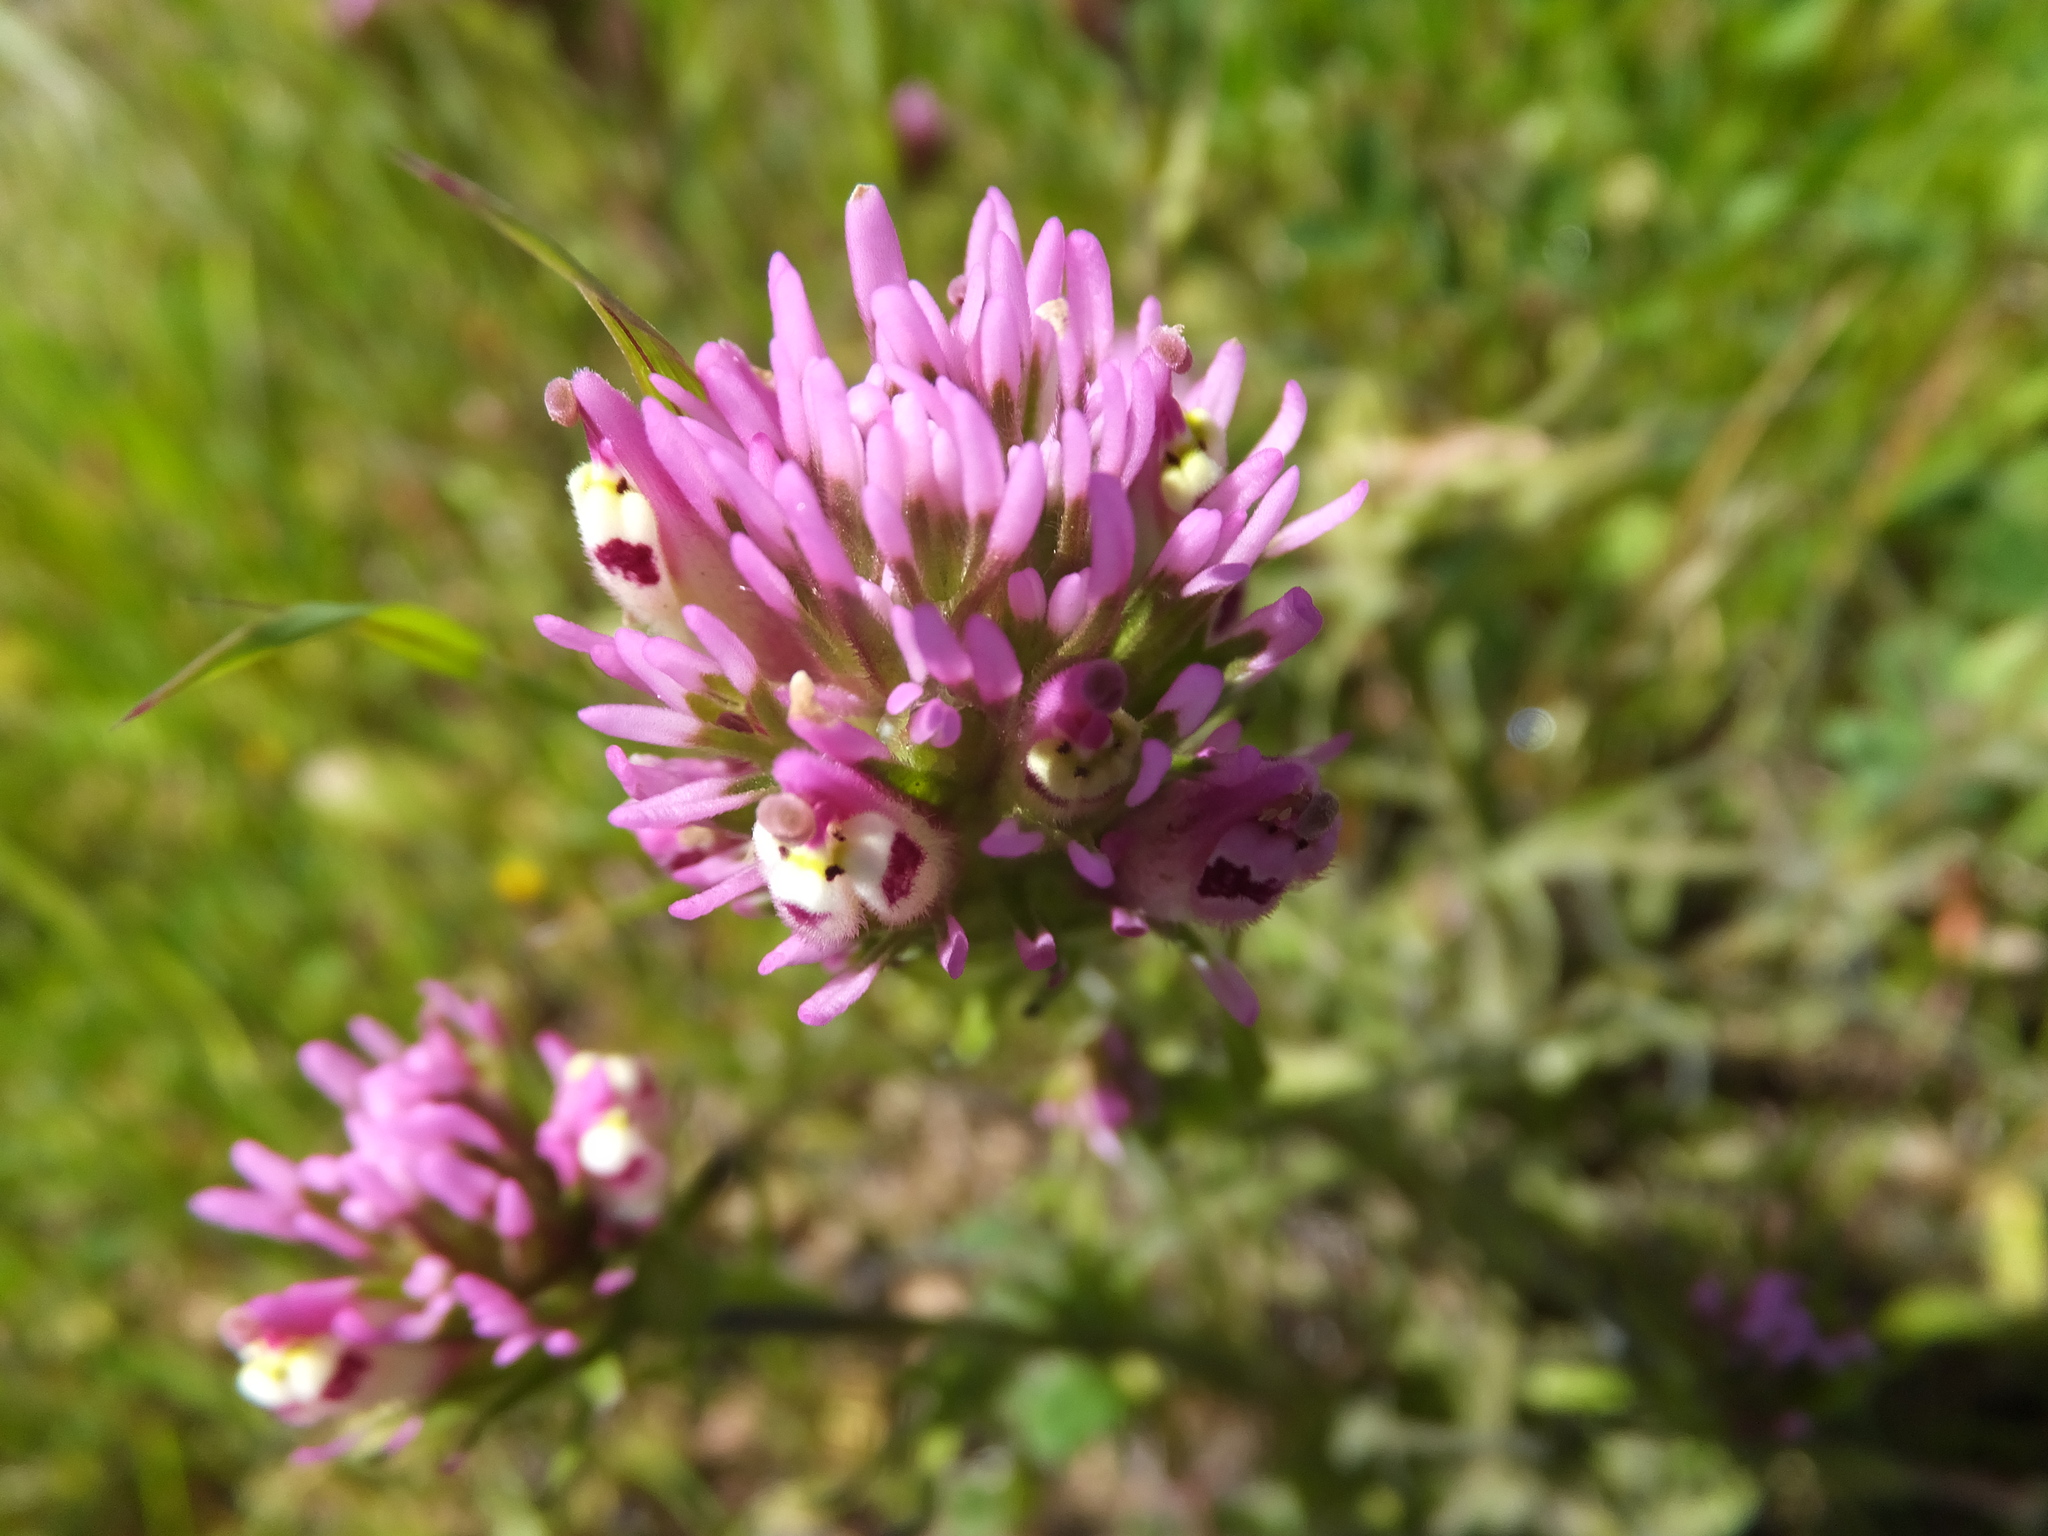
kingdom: Plantae
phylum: Tracheophyta
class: Magnoliopsida
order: Lamiales
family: Orobanchaceae
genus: Castilleja
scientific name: Castilleja densiflora
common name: Dense-flower indian paintbrush
